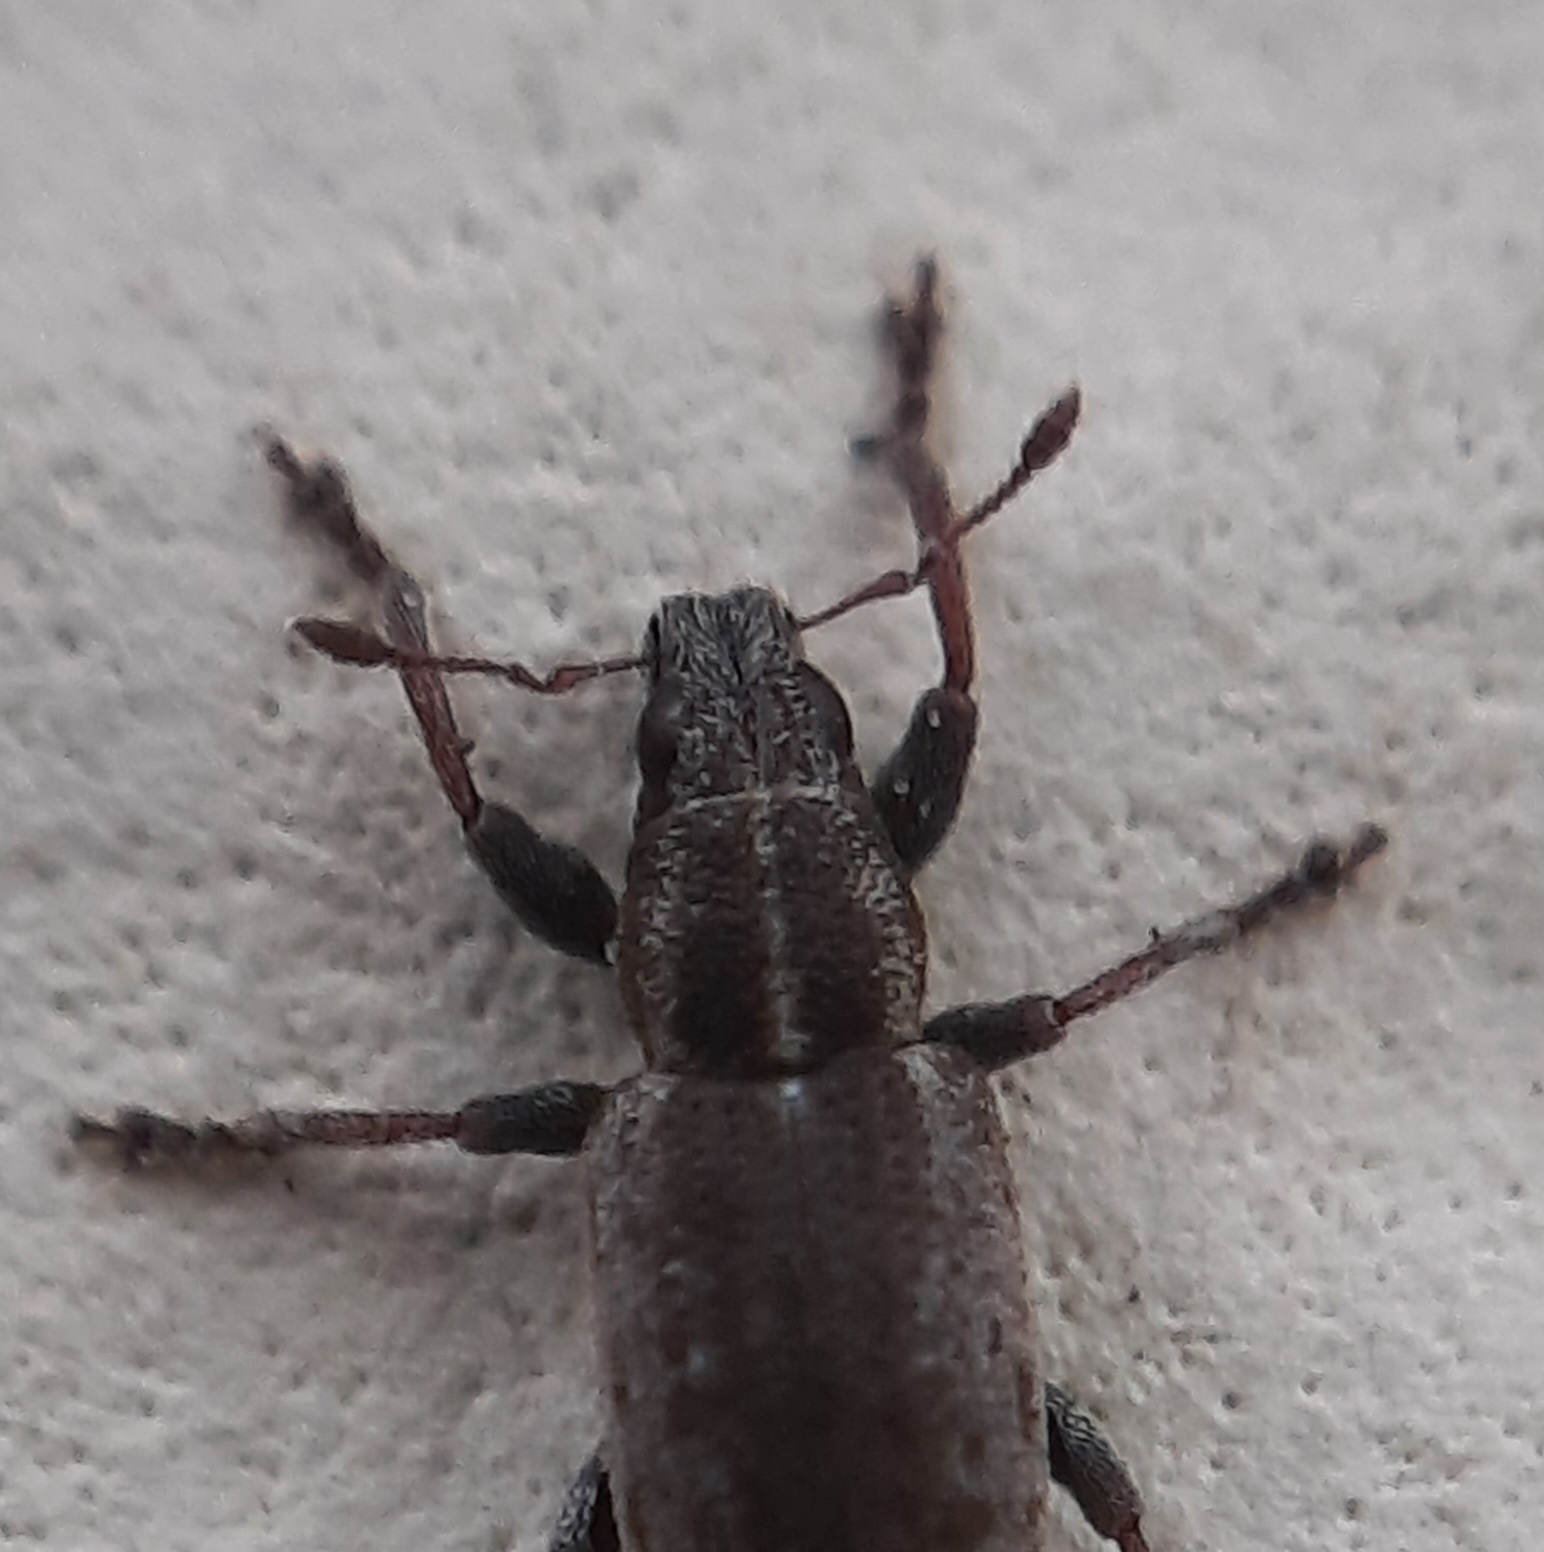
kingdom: Animalia
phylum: Arthropoda
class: Insecta
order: Coleoptera
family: Curculionidae
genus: Sitona
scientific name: Sitona humeralis
